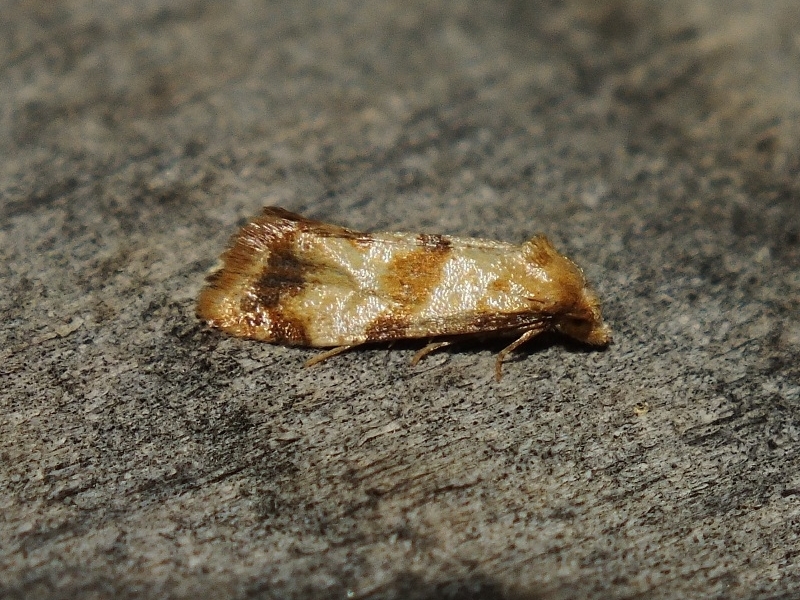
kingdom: Animalia
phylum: Arthropoda
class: Insecta
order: Lepidoptera
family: Tortricidae
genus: Phalonidia
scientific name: Phalonidia contractana
